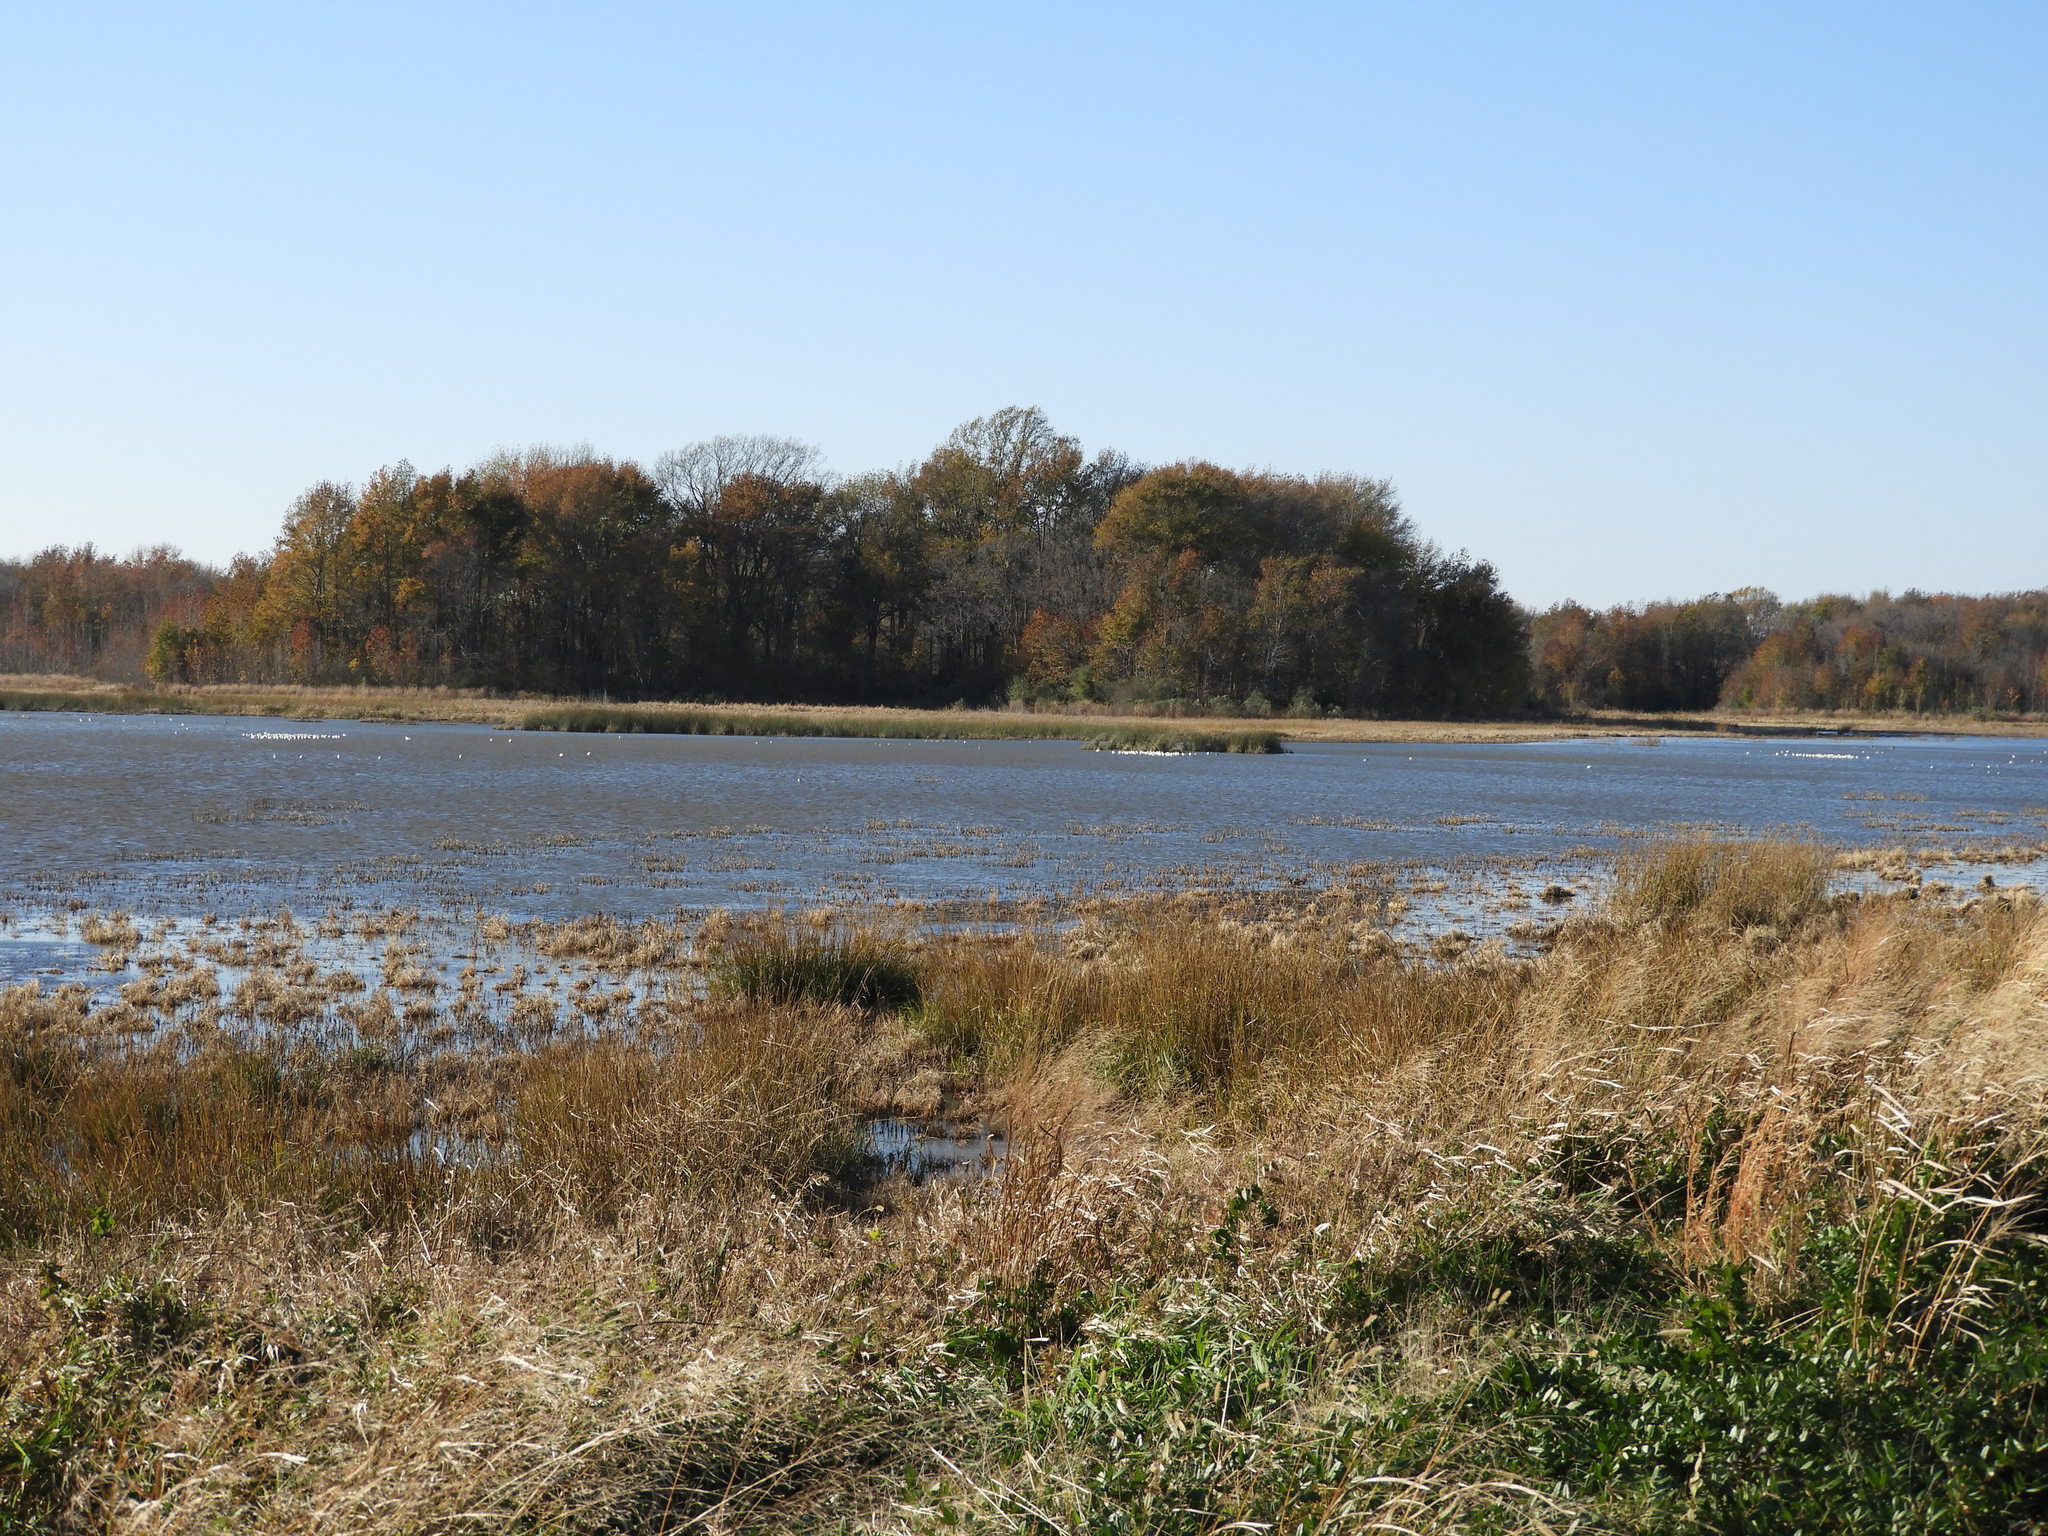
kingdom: Animalia
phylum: Chordata
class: Aves
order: Charadriiformes
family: Recurvirostridae
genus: Recurvirostra
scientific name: Recurvirostra americana
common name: American avocet
